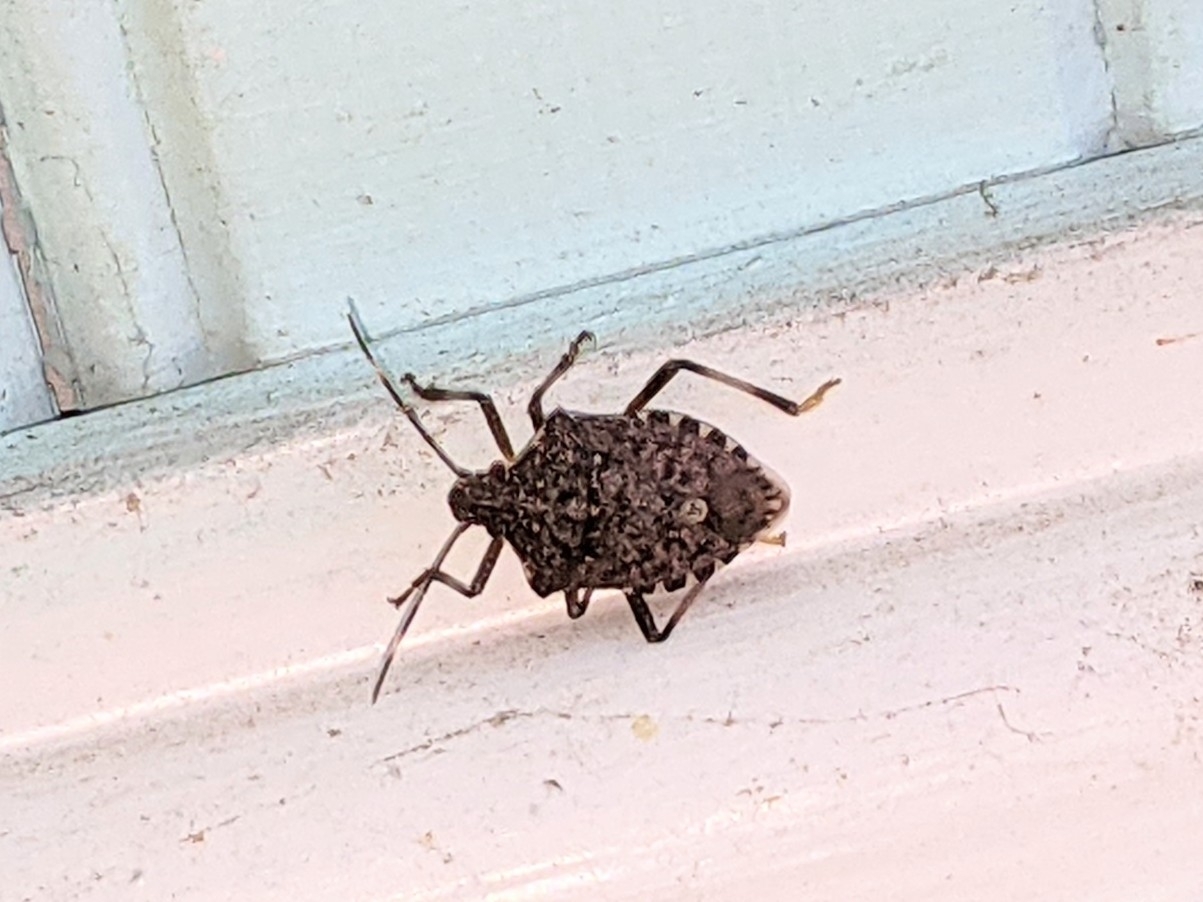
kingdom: Animalia
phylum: Arthropoda
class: Insecta
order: Hemiptera
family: Pentatomidae
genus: Halyomorpha
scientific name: Halyomorpha halys
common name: Brown marmorated stink bug
